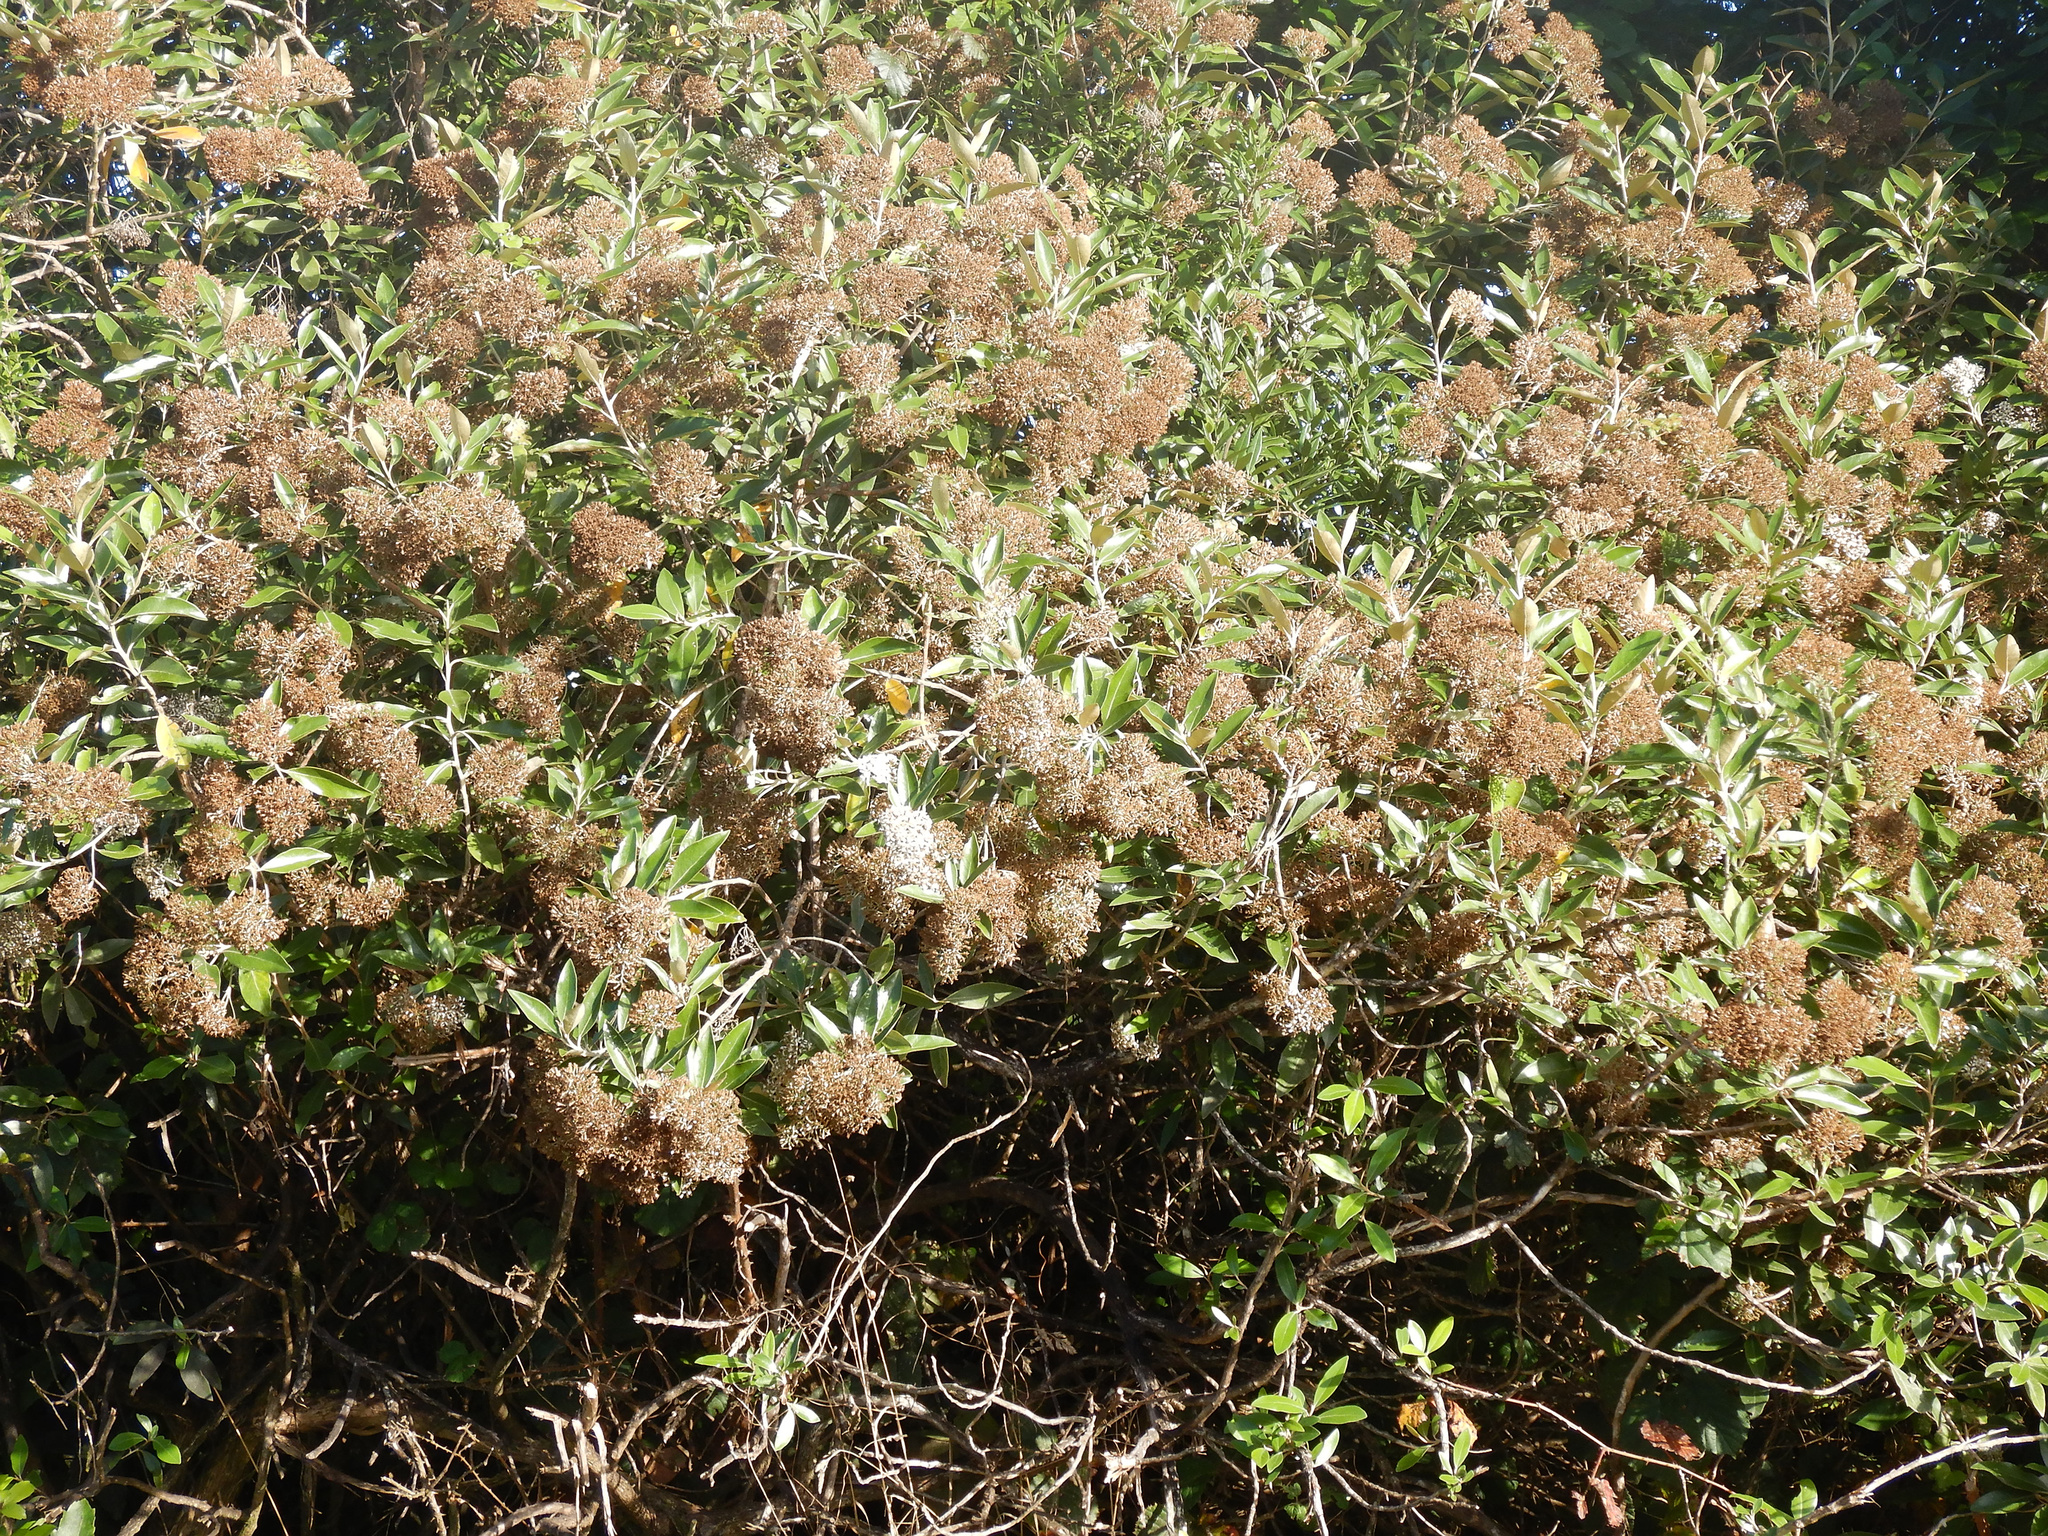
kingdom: Plantae
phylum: Tracheophyta
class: Magnoliopsida
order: Asterales
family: Asteraceae
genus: Olearia
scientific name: Olearia avicenniifolia
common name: Mangrove-leaf daisybush
